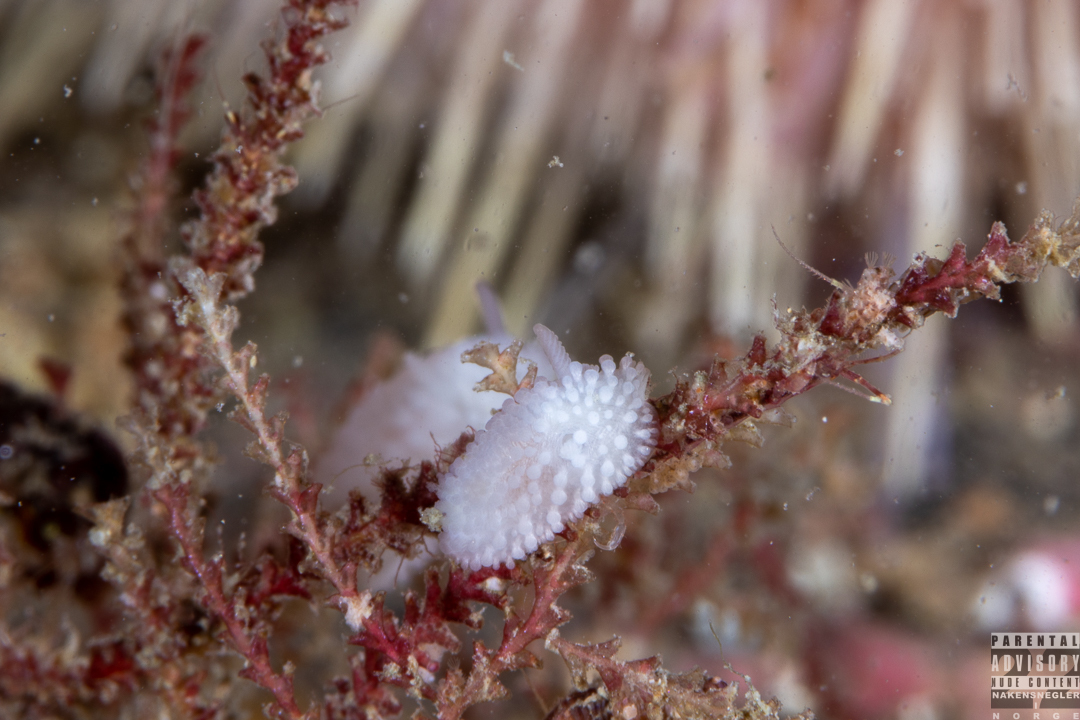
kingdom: Animalia
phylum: Mollusca
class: Gastropoda
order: Nudibranchia
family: Onchidorididae
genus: Onchidoris
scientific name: Onchidoris muricata
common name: Rough doris
